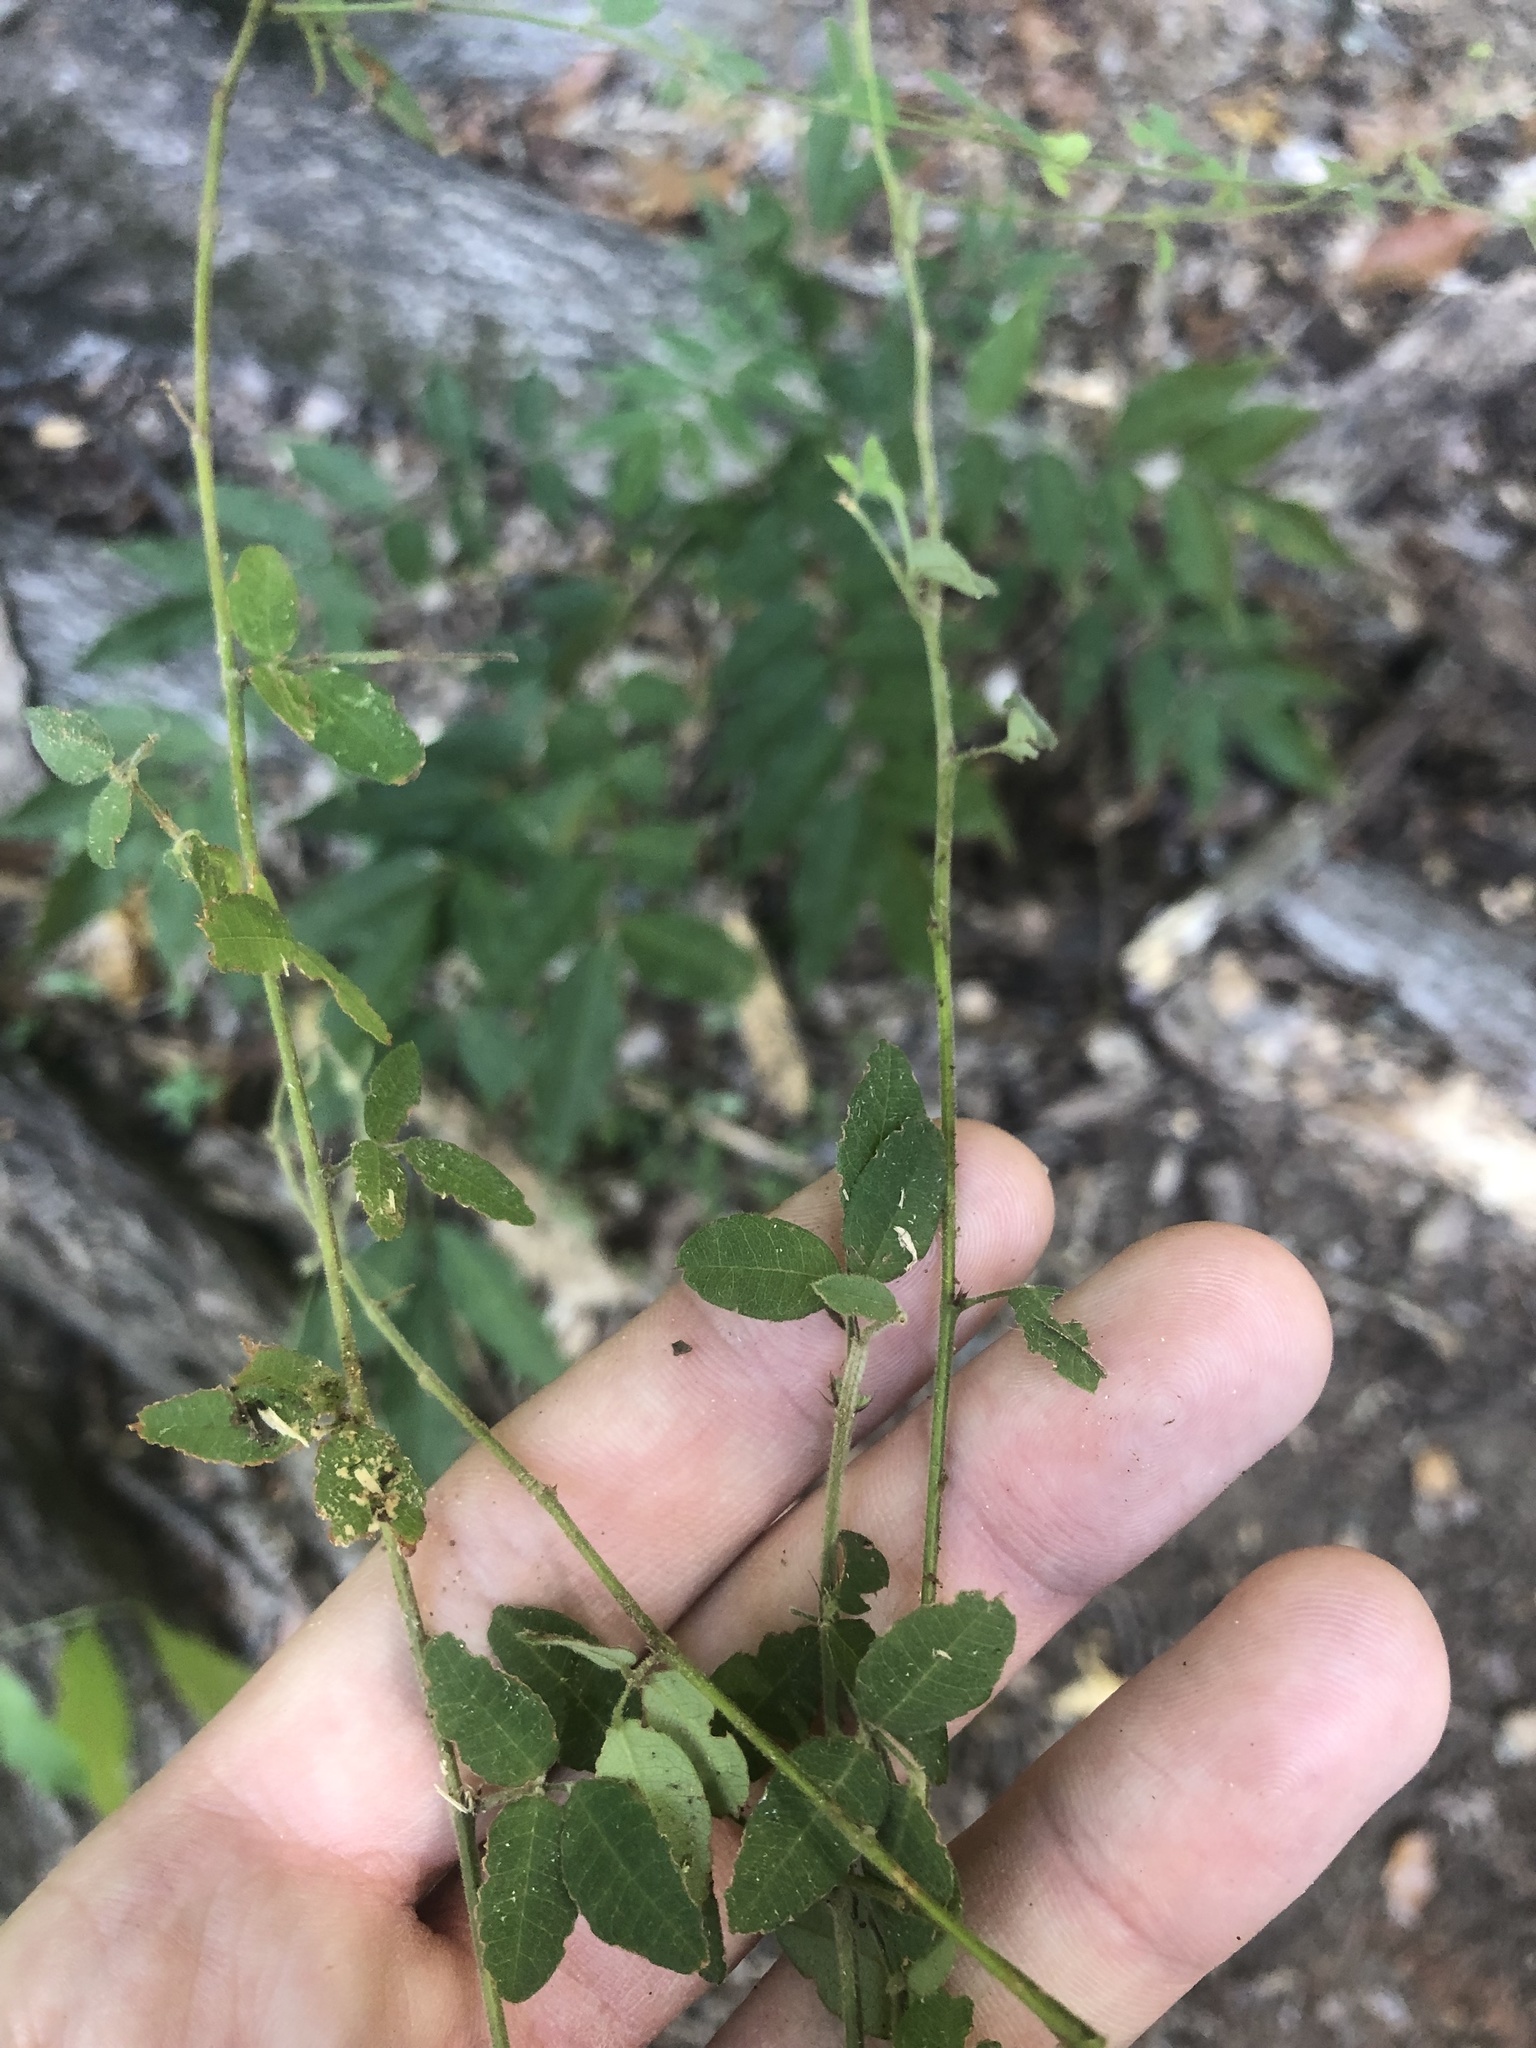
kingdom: Plantae
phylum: Tracheophyta
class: Magnoliopsida
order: Fabales
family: Fabaceae
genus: Lespedeza
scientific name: Lespedeza procumbens
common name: Downy trailing bush-clover
